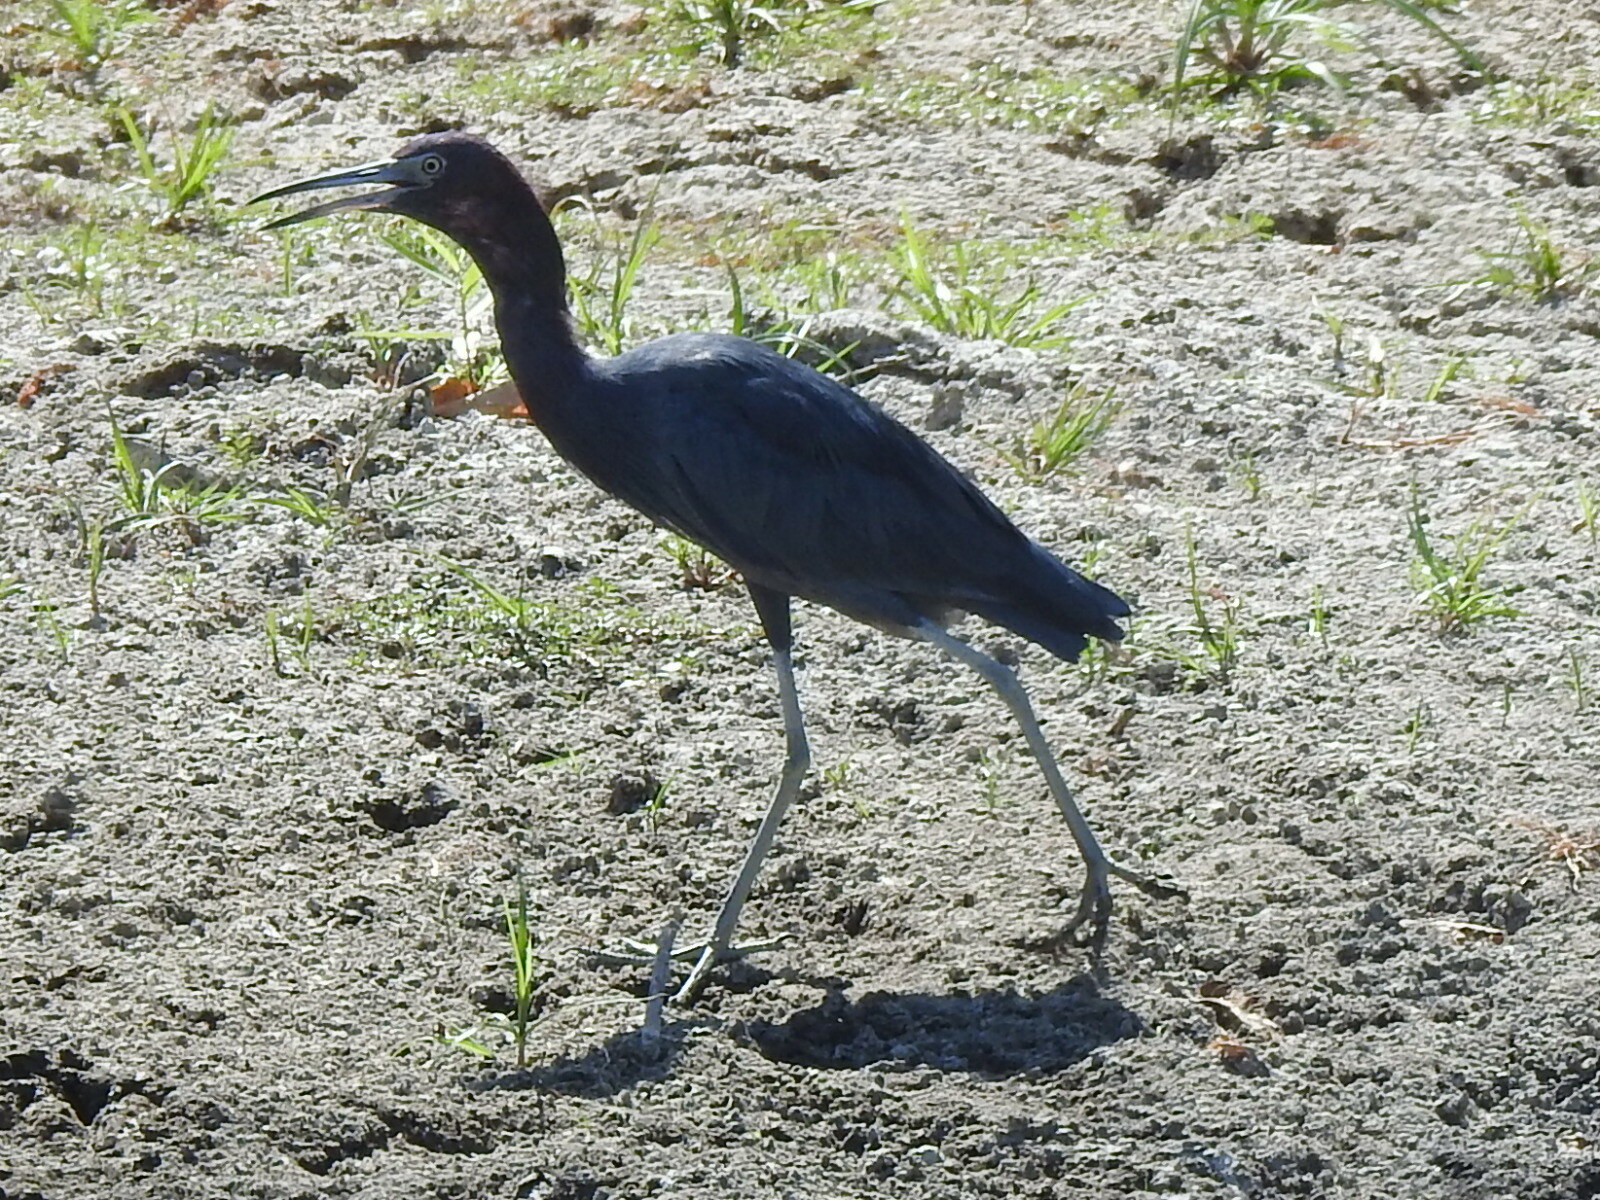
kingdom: Animalia
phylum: Chordata
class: Aves
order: Pelecaniformes
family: Ardeidae
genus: Egretta
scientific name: Egretta caerulea
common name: Little blue heron
